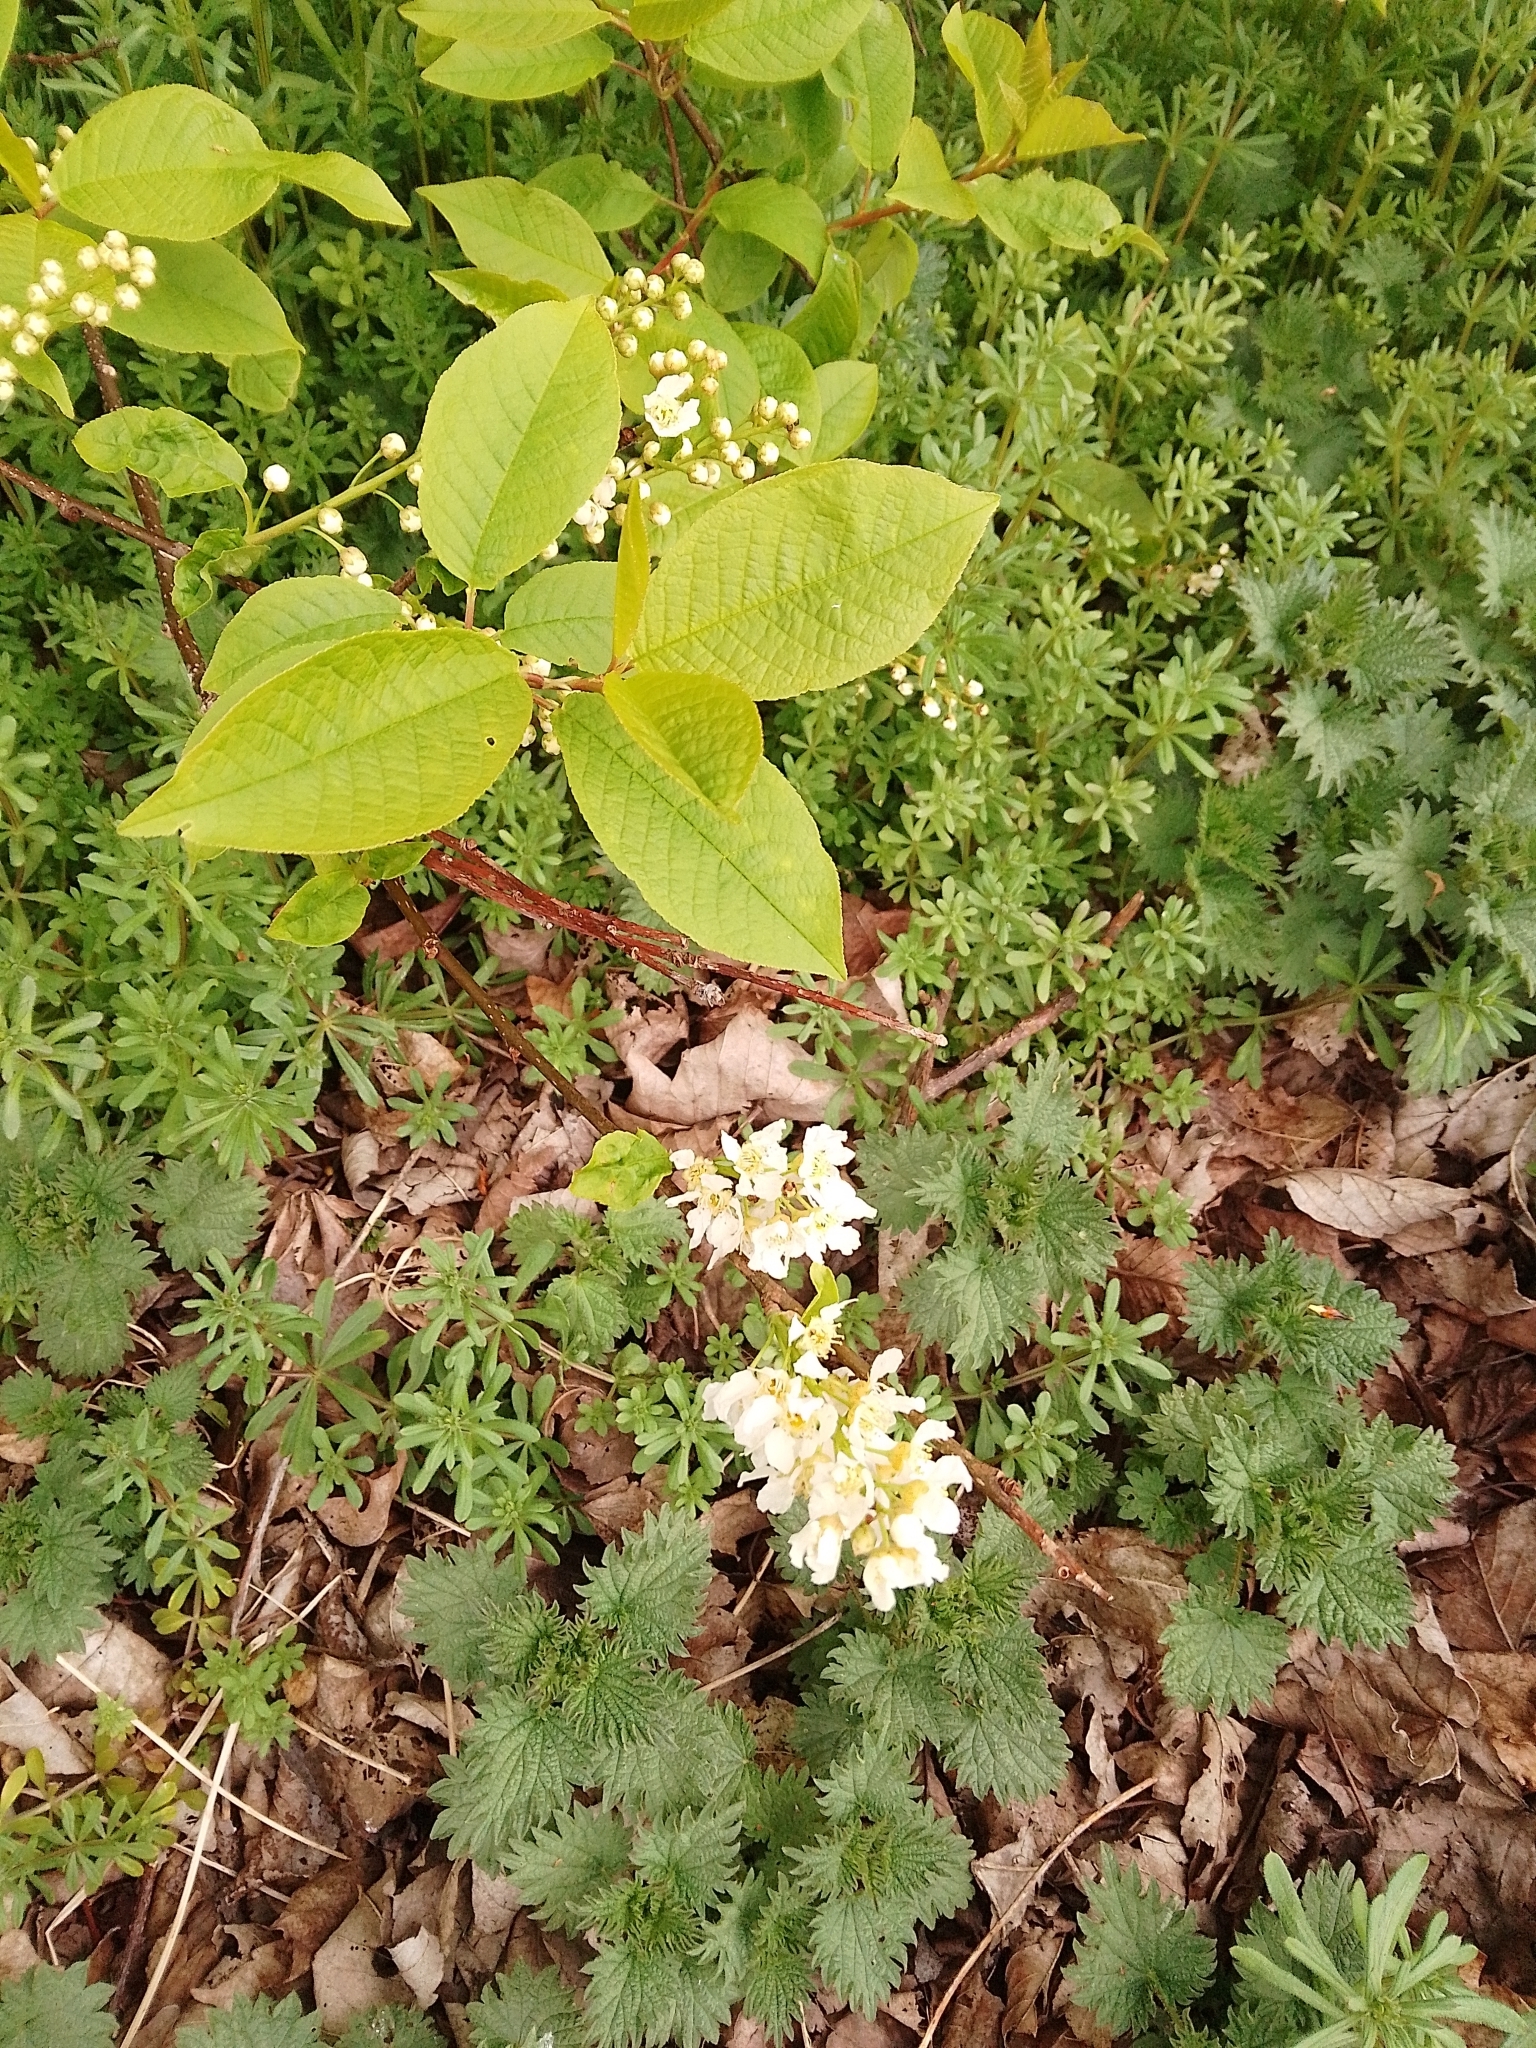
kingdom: Plantae
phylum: Tracheophyta
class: Magnoliopsida
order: Rosales
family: Rosaceae
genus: Prunus
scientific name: Prunus padus
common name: Bird cherry
